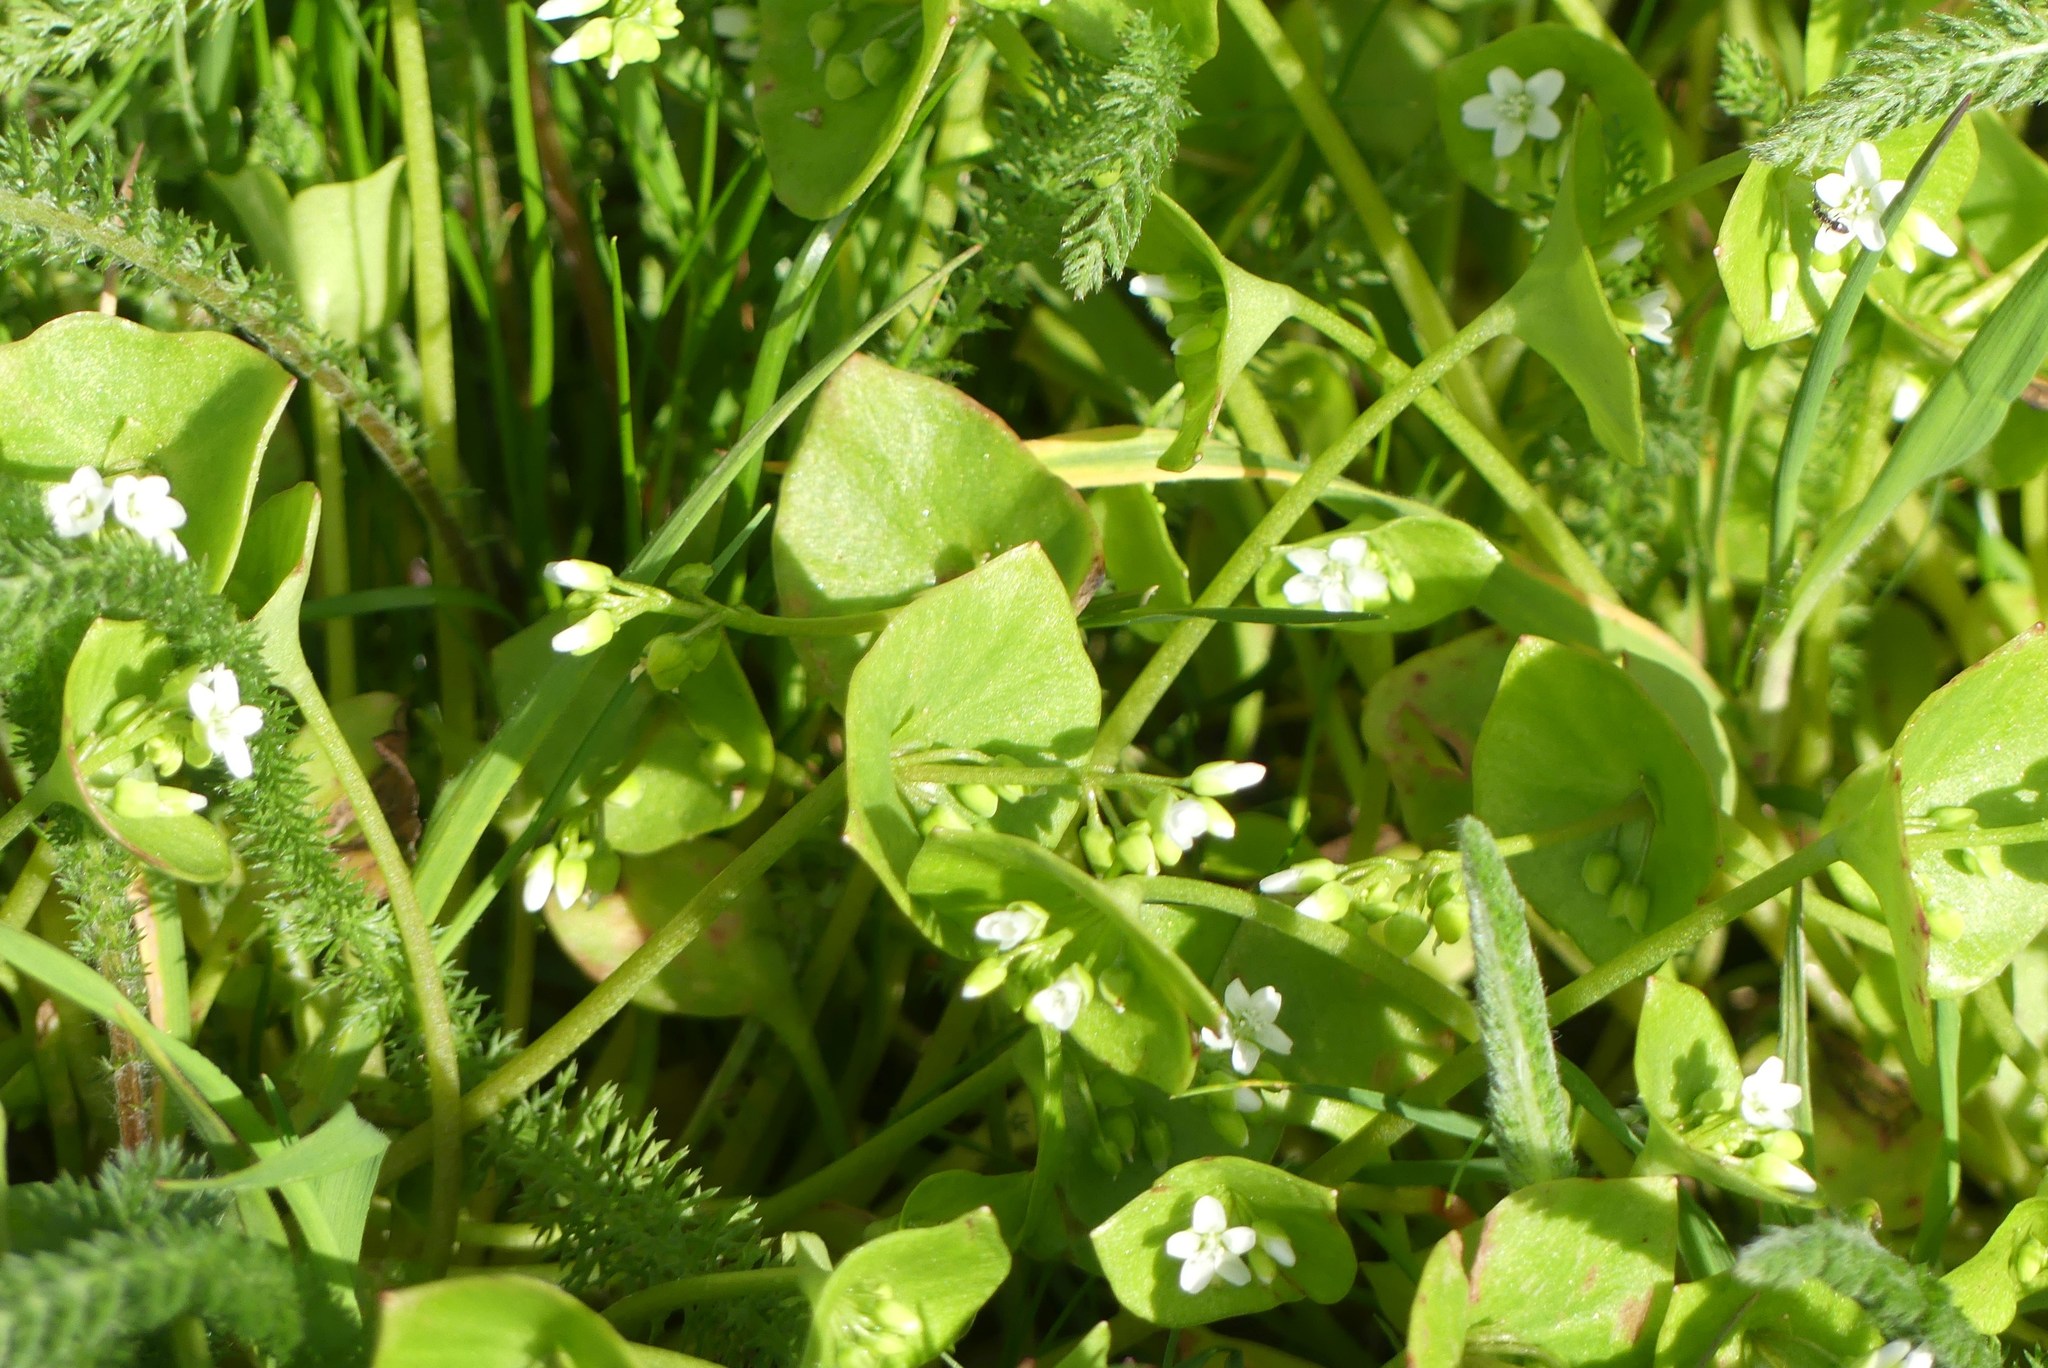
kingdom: Plantae
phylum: Tracheophyta
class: Magnoliopsida
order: Caryophyllales
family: Montiaceae
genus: Claytonia
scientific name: Claytonia perfoliata
